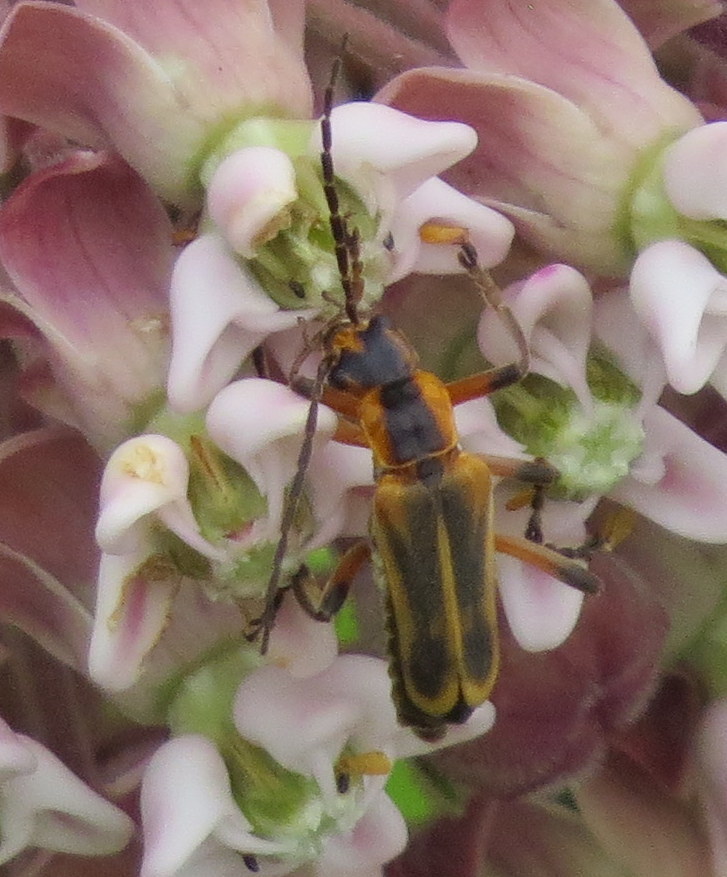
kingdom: Animalia
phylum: Arthropoda
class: Insecta
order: Coleoptera
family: Cantharidae
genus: Chauliognathus
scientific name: Chauliognathus marginatus
